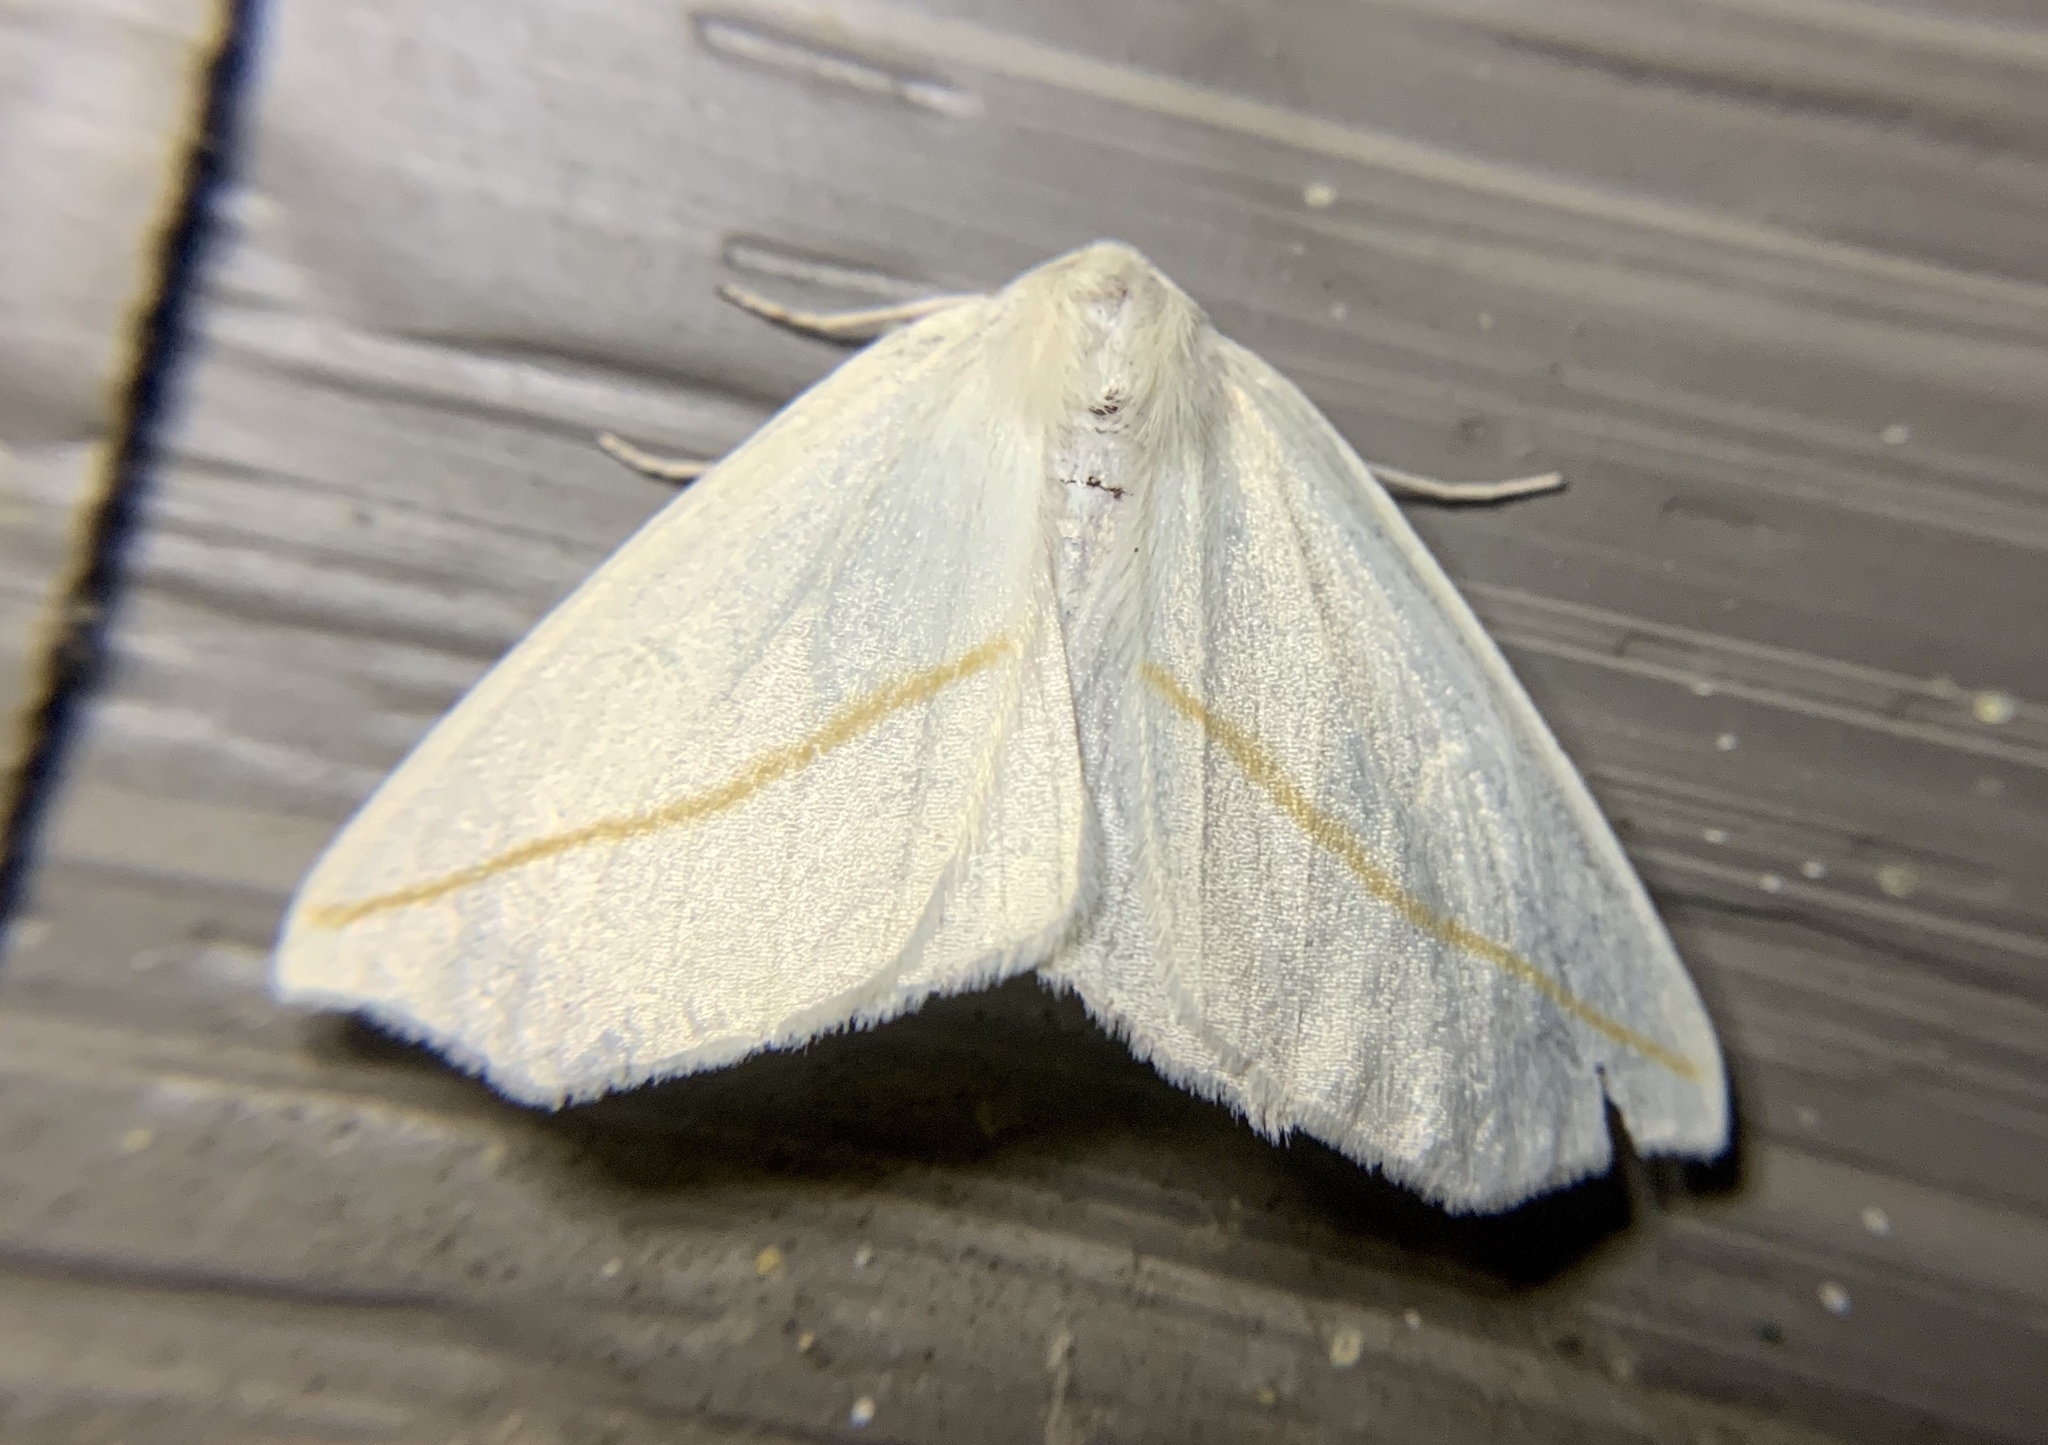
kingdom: Animalia
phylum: Arthropoda
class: Insecta
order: Lepidoptera
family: Geometridae
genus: Tetracis
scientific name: Tetracis cachexiata
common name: White slant-line
